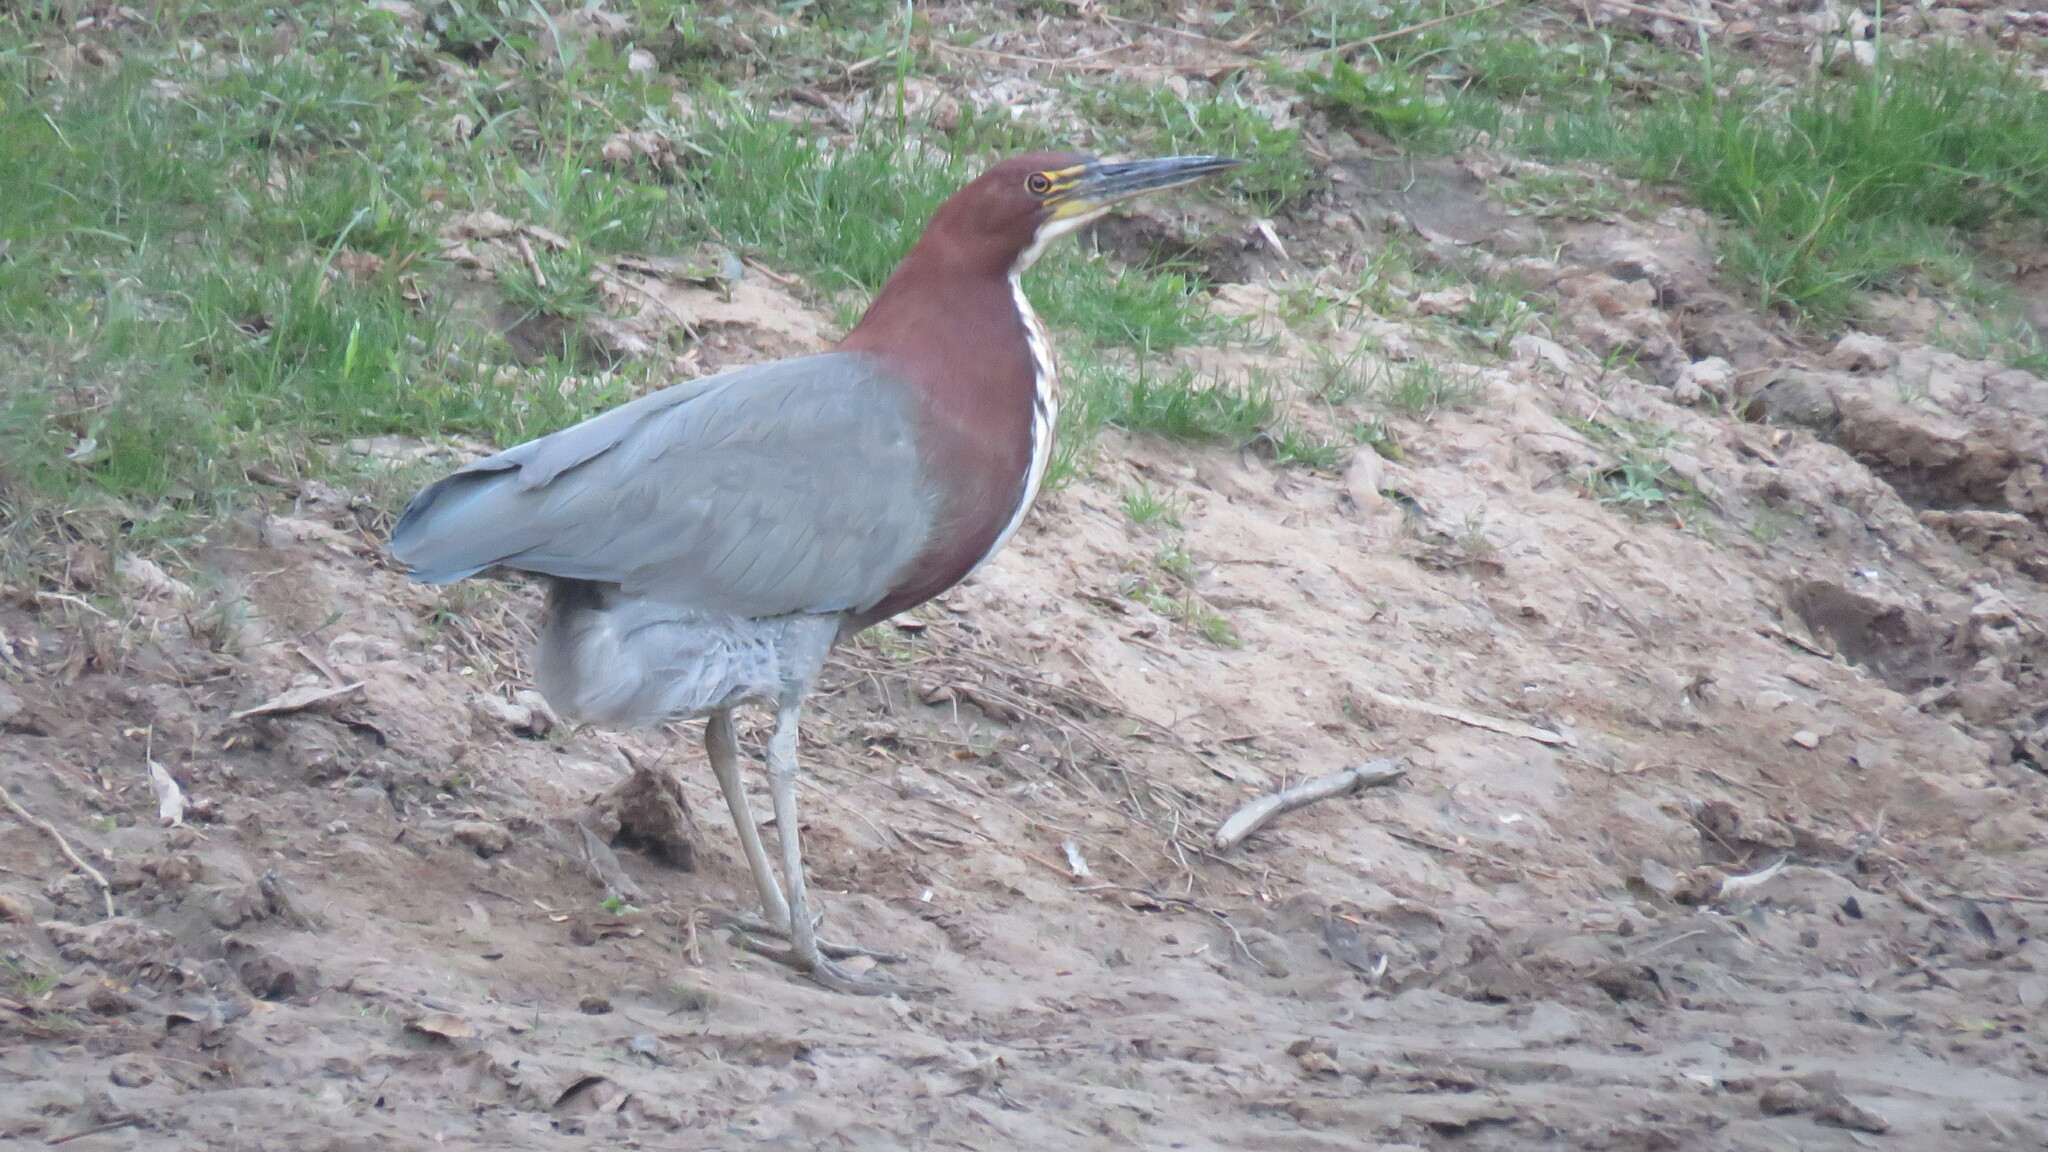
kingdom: Animalia
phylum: Chordata
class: Aves
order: Pelecaniformes
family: Ardeidae
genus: Tigrisoma
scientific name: Tigrisoma lineatum
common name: Rufescent tiger-heron
